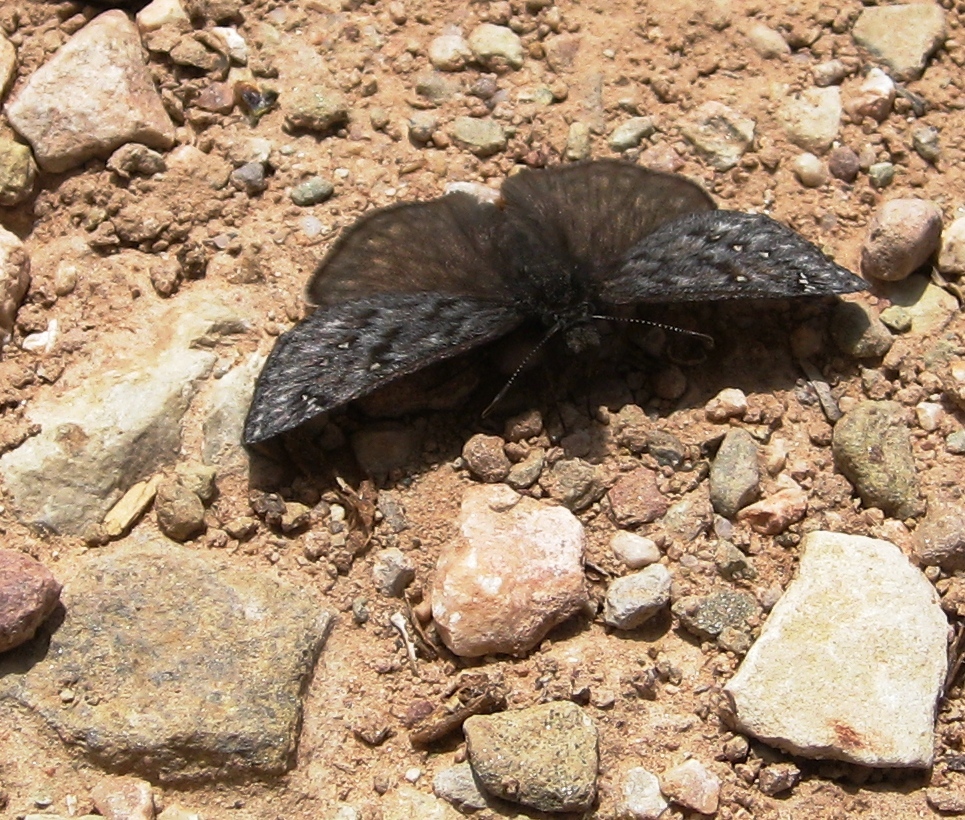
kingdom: Animalia
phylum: Arthropoda
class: Insecta
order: Lepidoptera
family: Hesperiidae
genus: Erynnis
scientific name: Erynnis telemachus
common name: Rocky mountain duskywing
